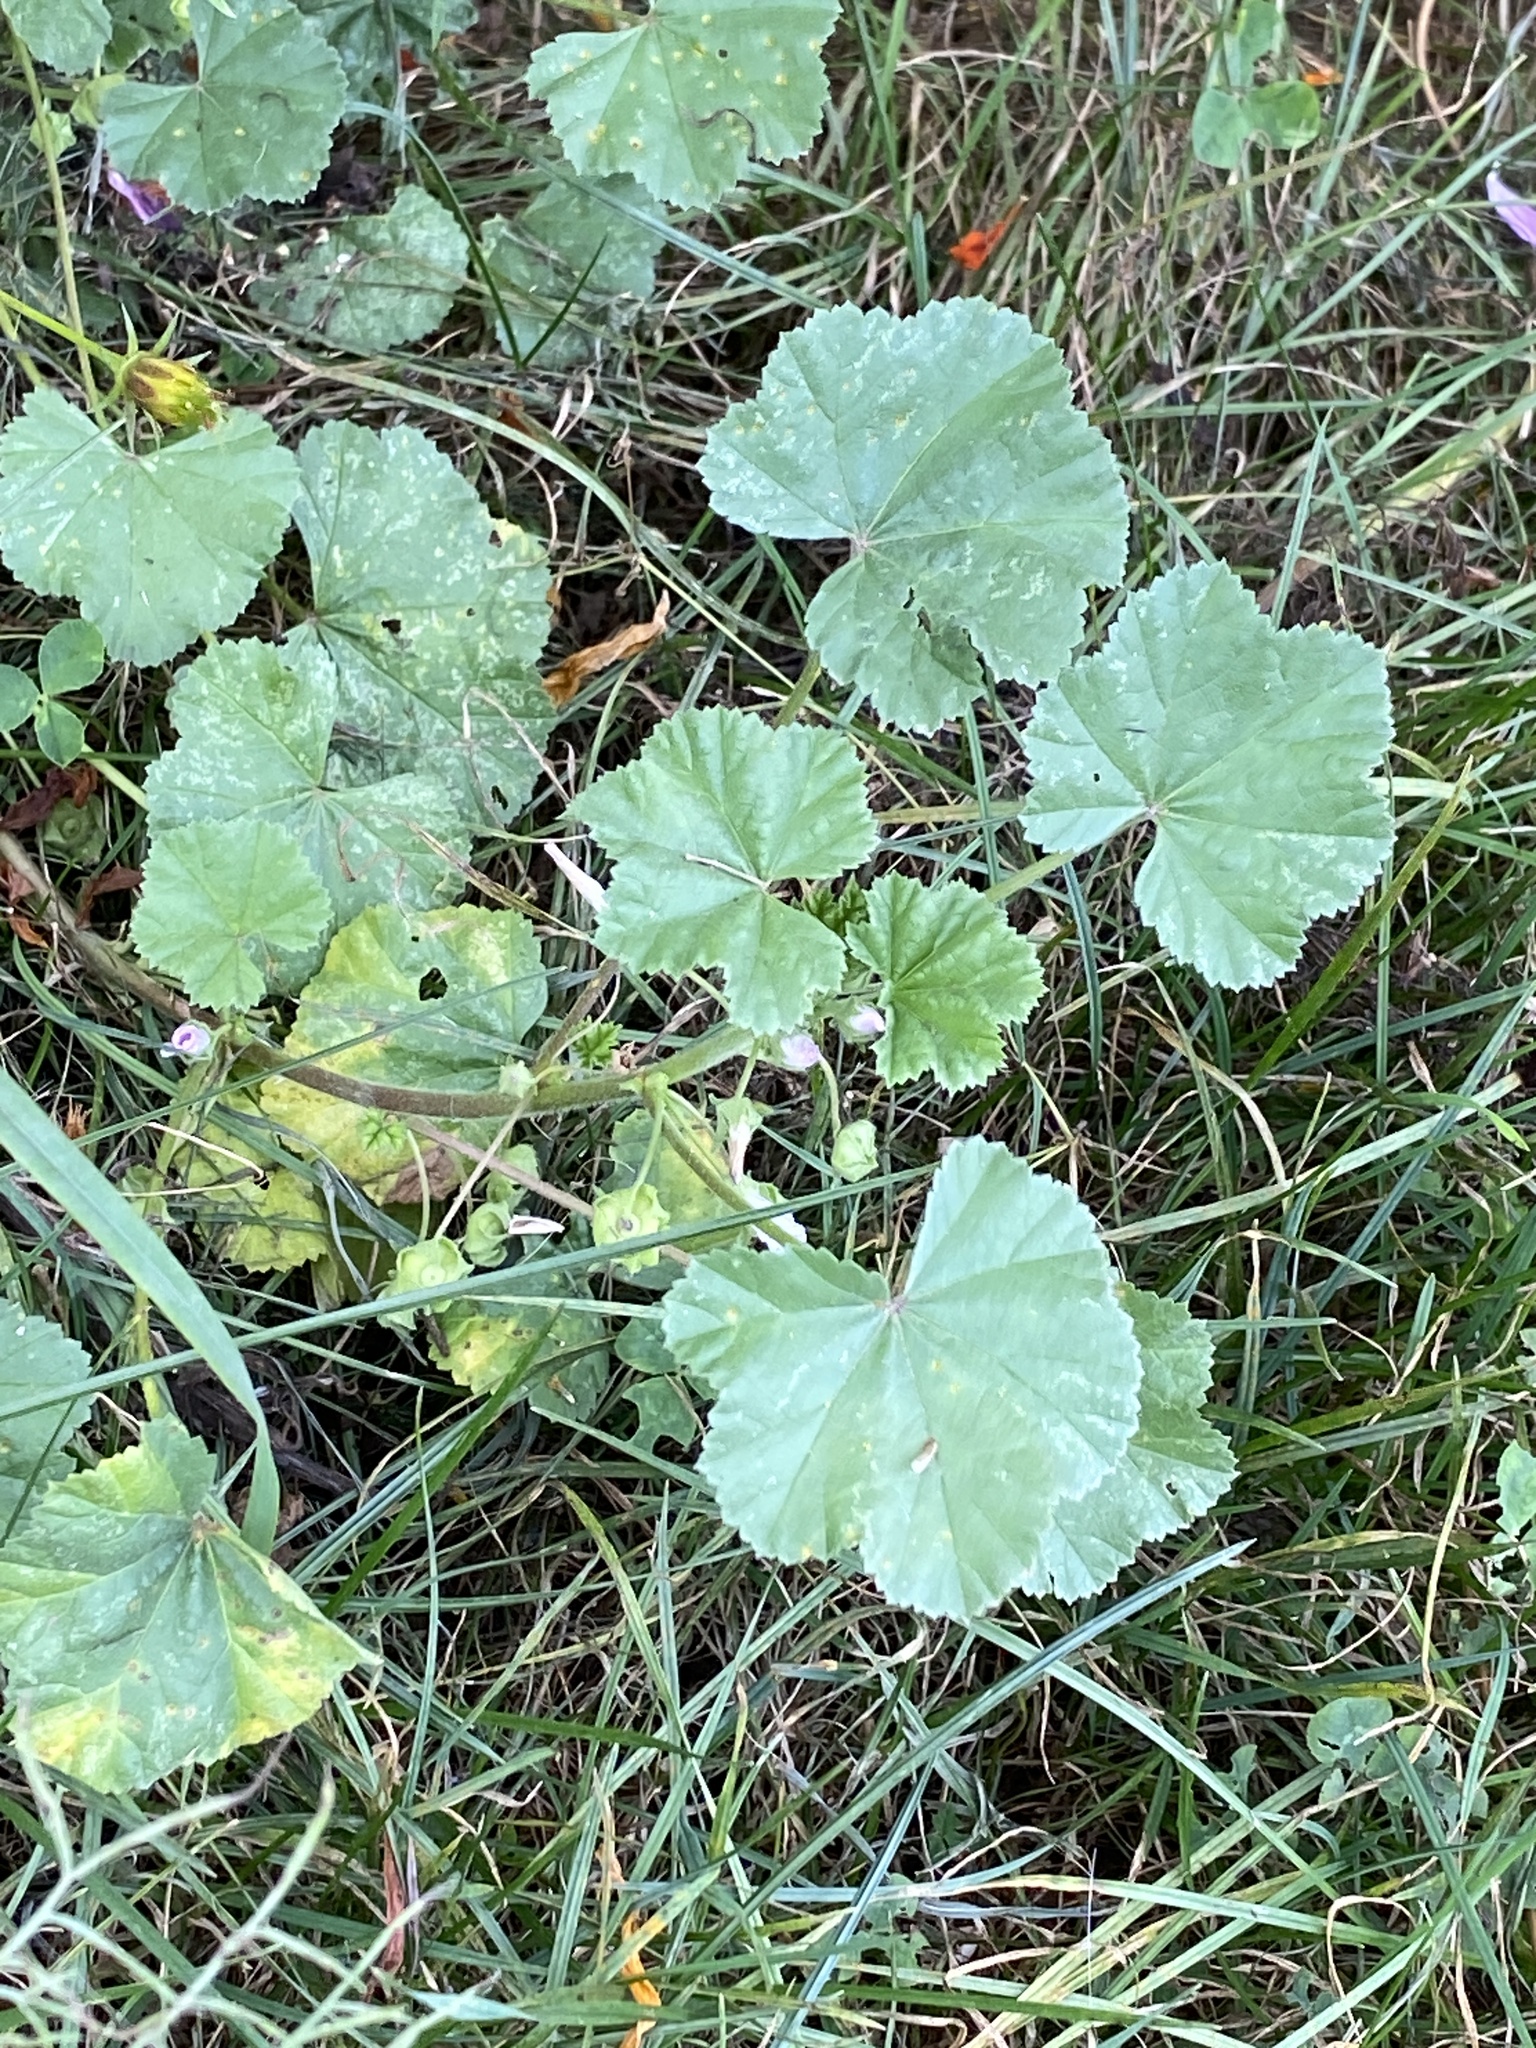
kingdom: Plantae
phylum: Tracheophyta
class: Magnoliopsida
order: Malvales
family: Malvaceae
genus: Malva
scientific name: Malva neglecta
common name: Common mallow
